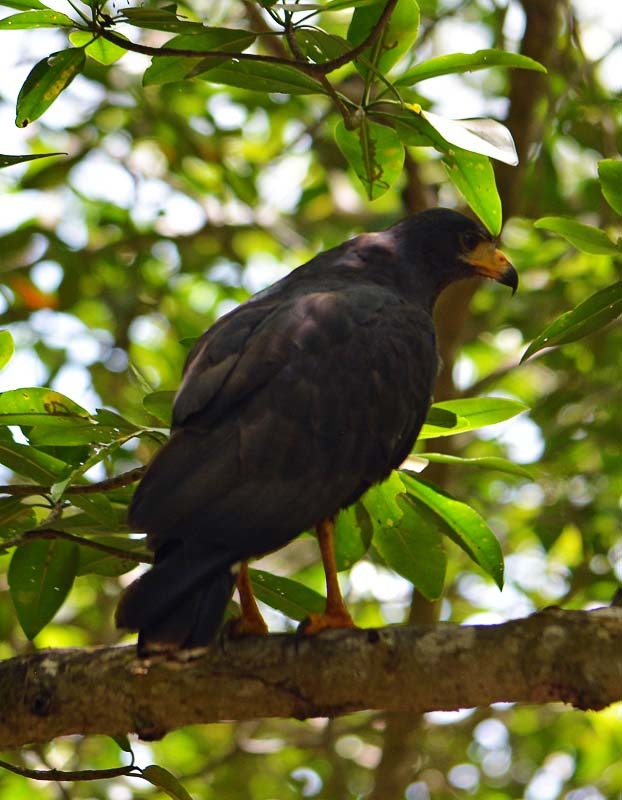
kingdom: Animalia
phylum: Chordata
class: Aves
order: Accipitriformes
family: Accipitridae
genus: Buteogallus
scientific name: Buteogallus anthracinus
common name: Common black hawk
